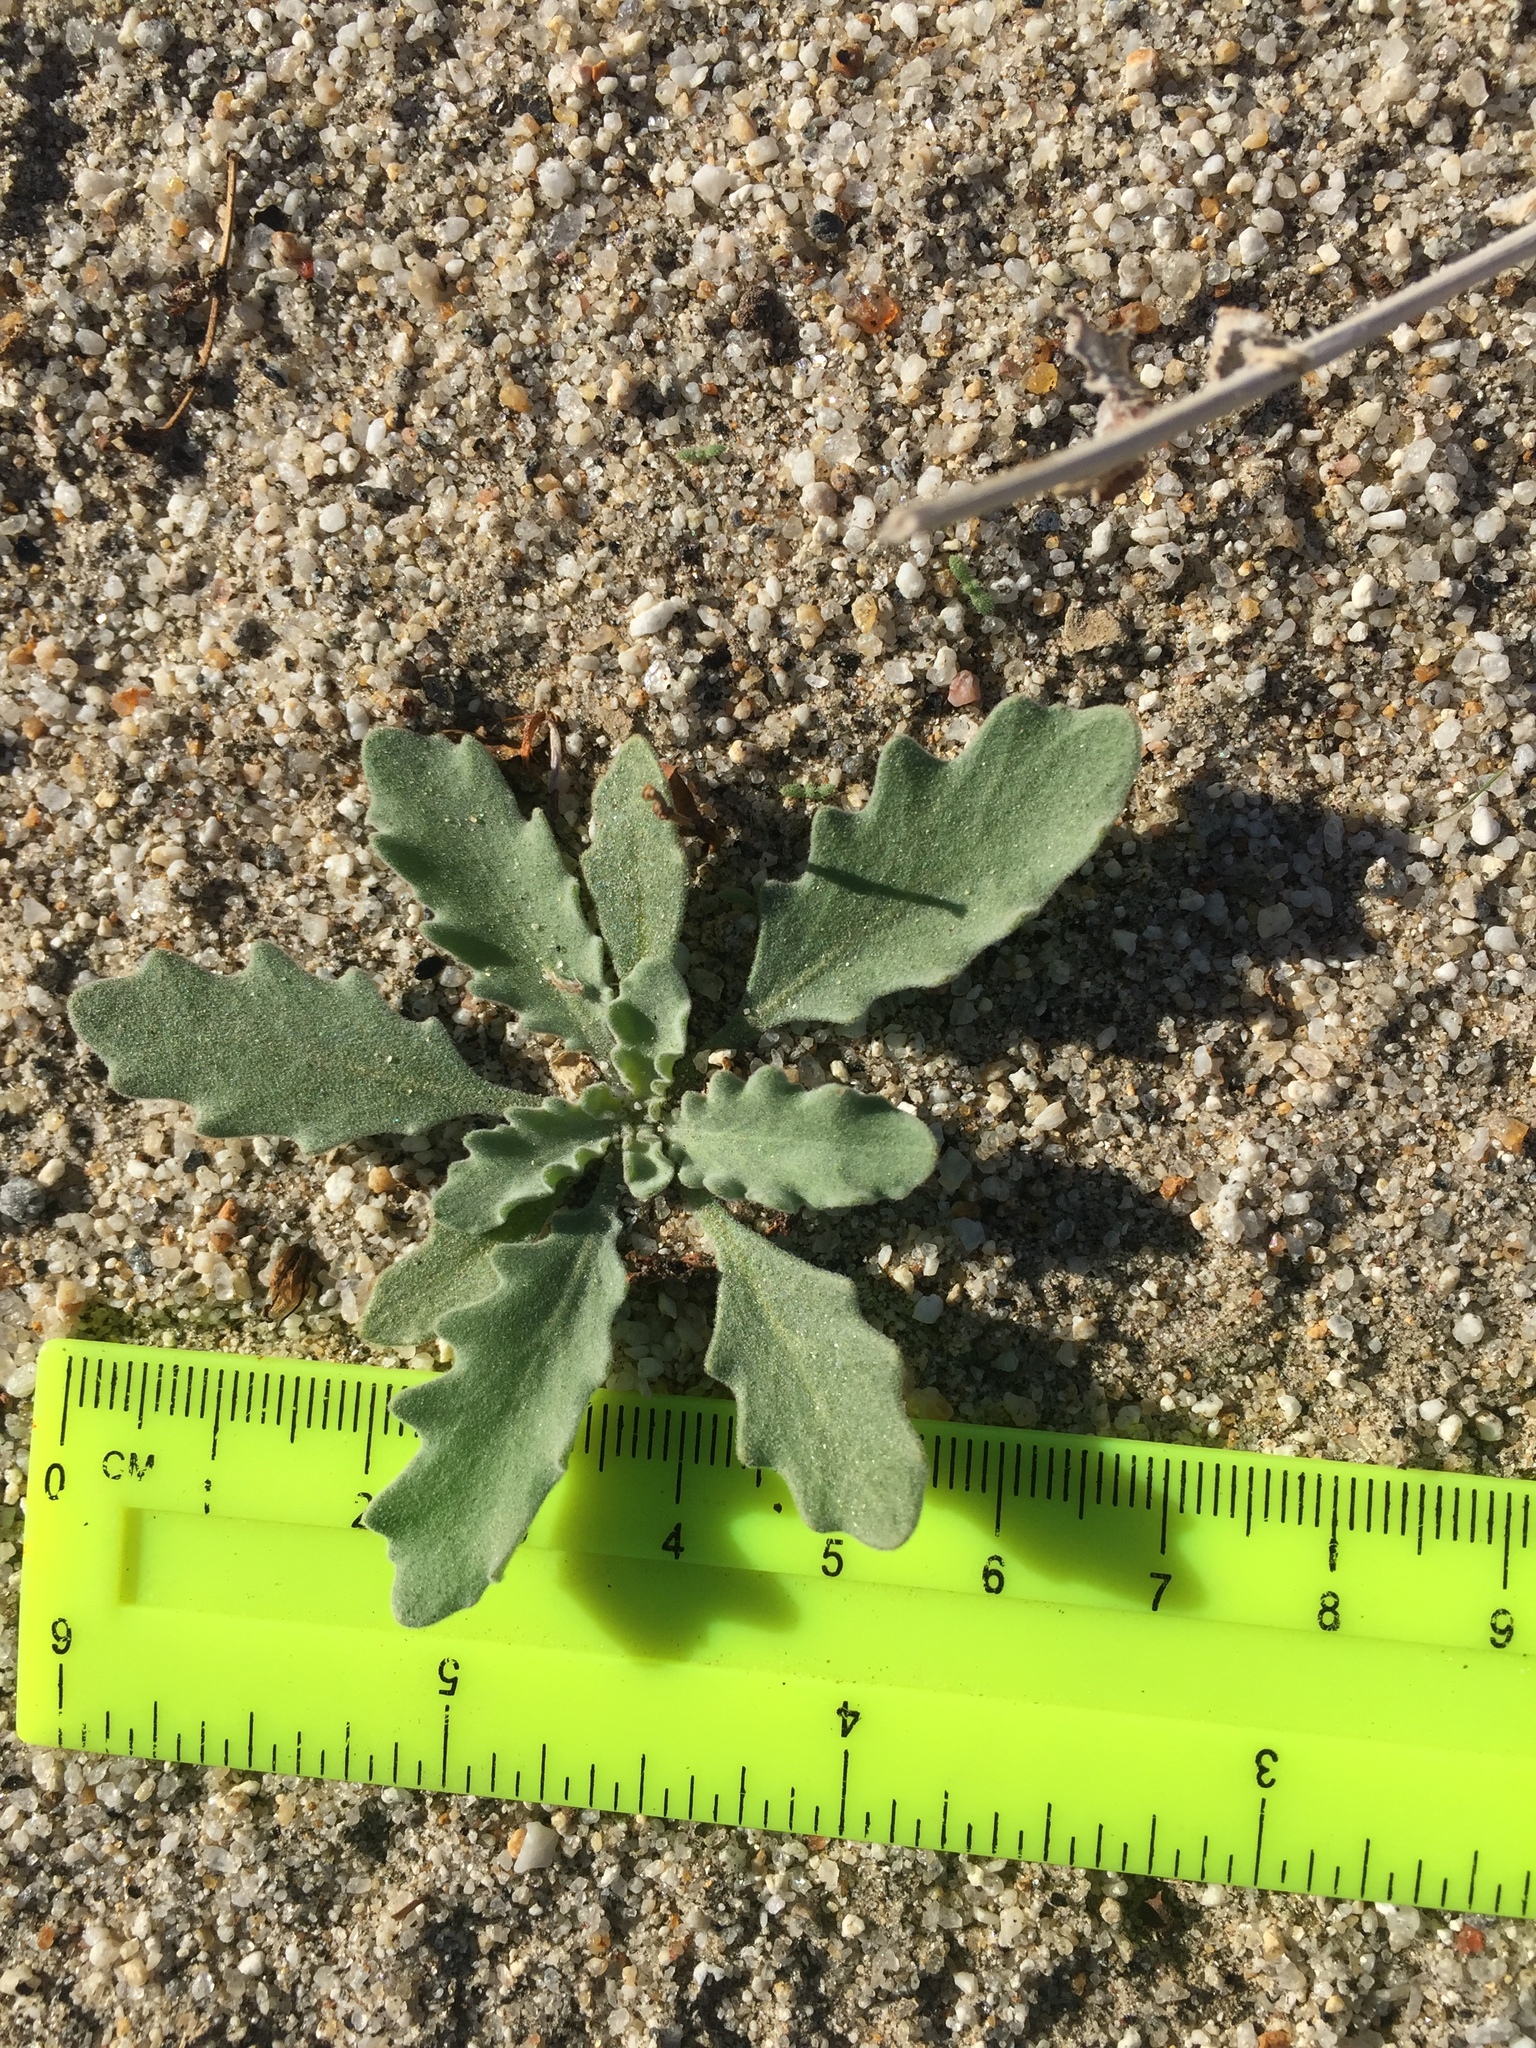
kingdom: Plantae
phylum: Tracheophyta
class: Magnoliopsida
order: Brassicales
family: Brassicaceae
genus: Dithyrea
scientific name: Dithyrea californica
